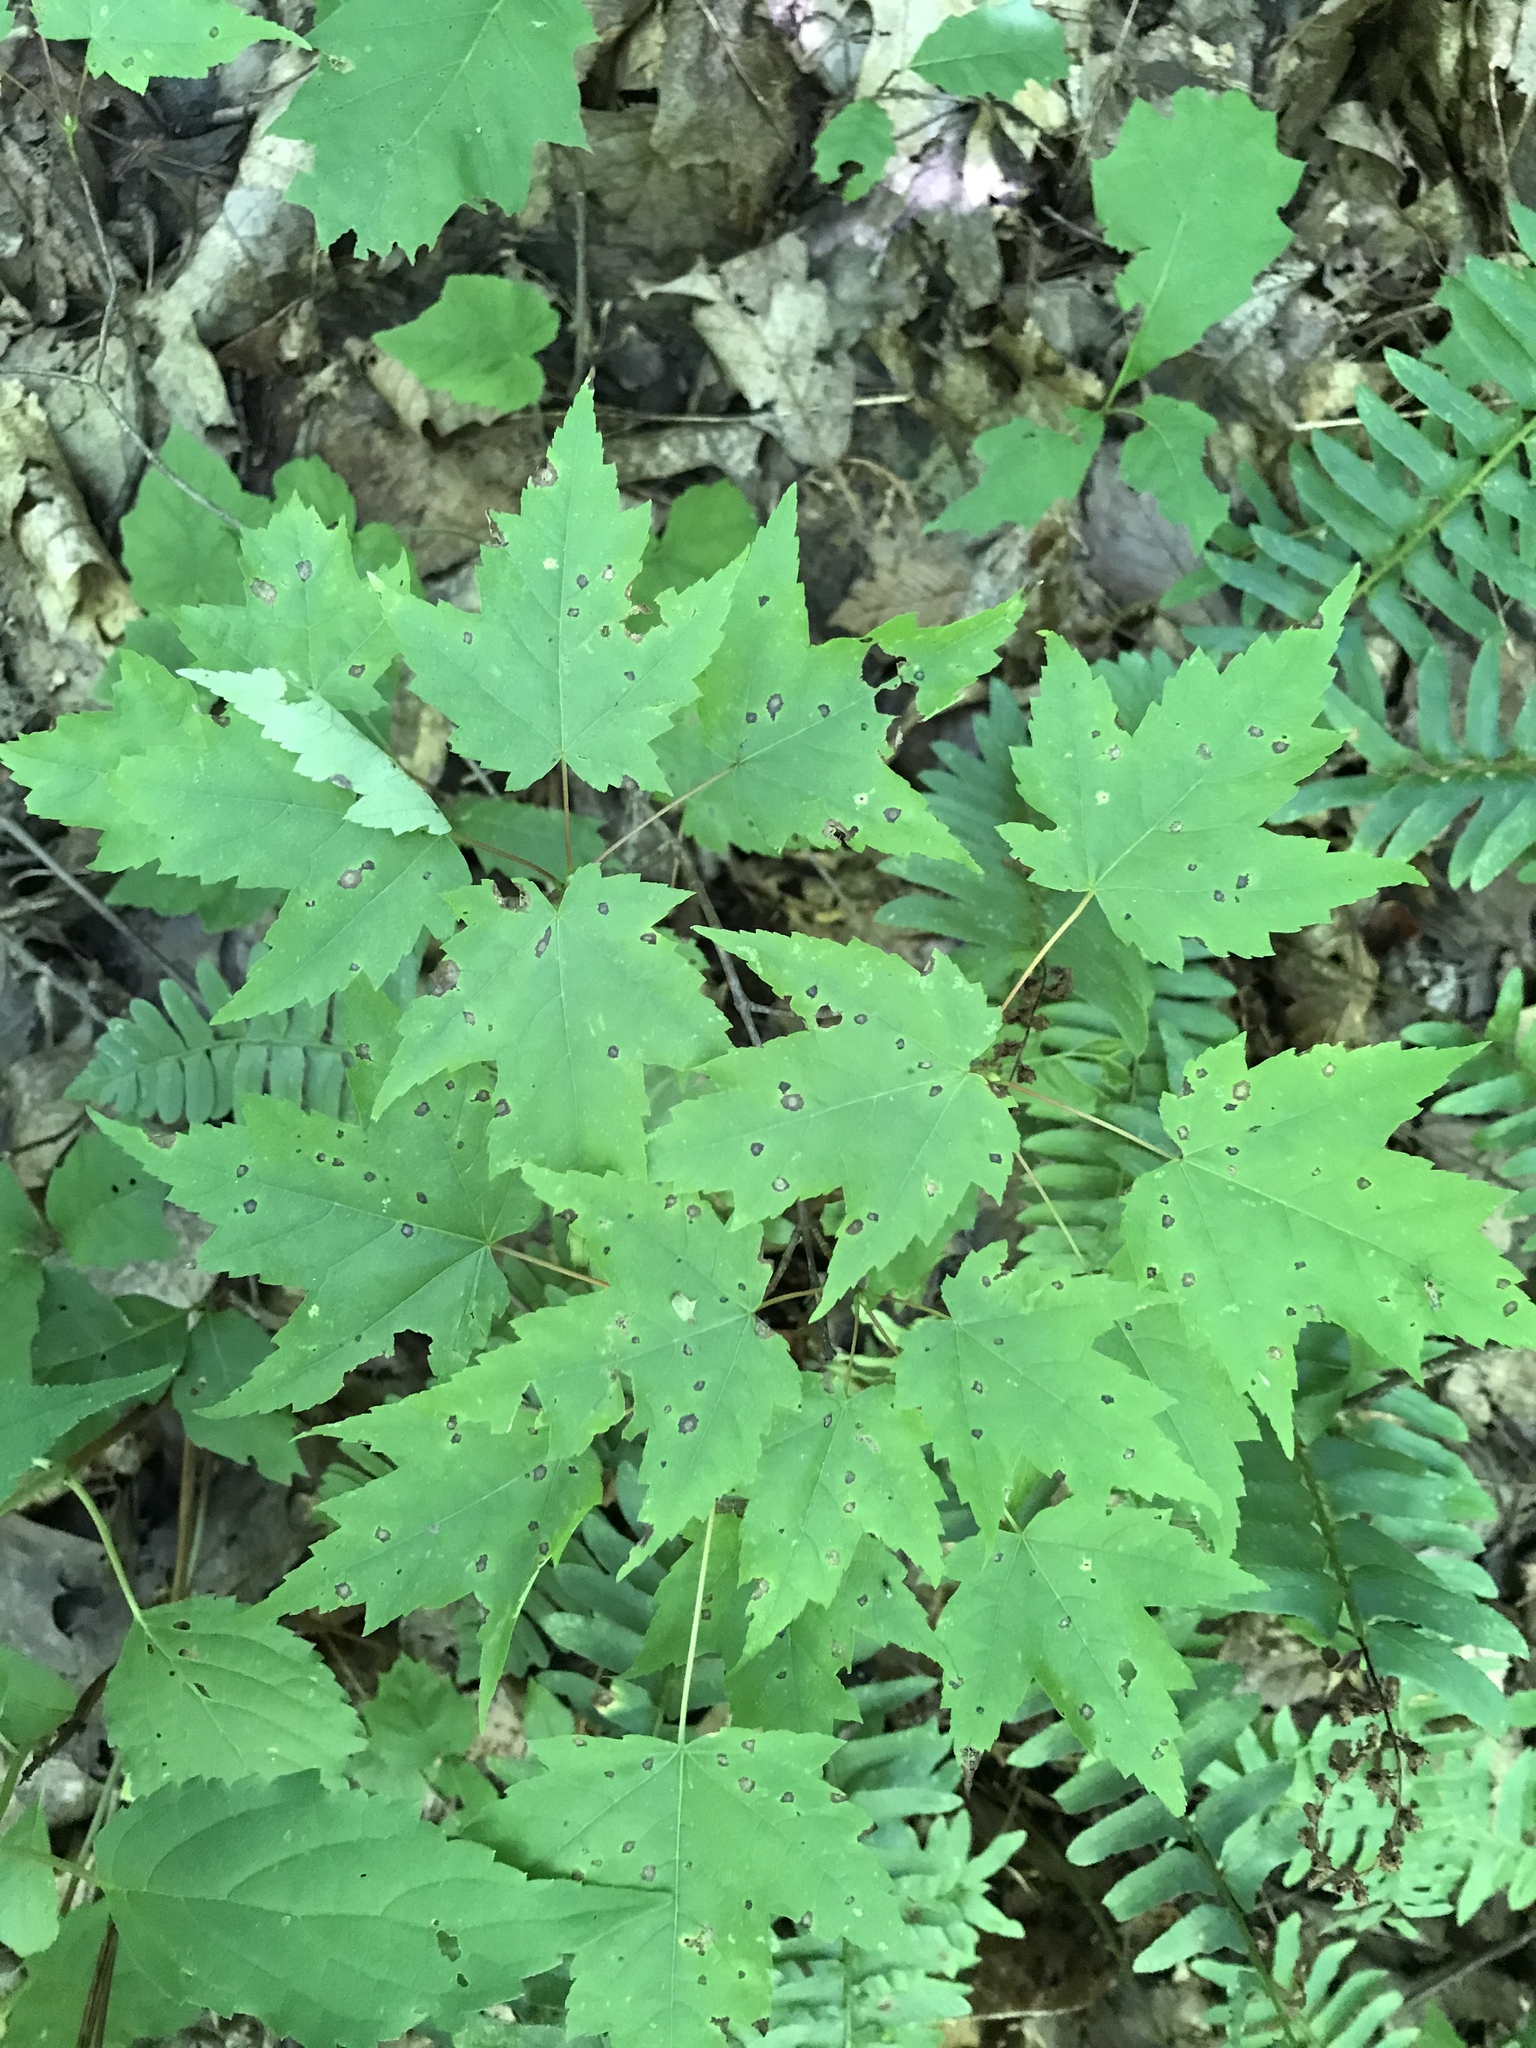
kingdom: Plantae
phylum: Tracheophyta
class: Magnoliopsida
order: Sapindales
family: Sapindaceae
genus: Acer
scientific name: Acer rubrum
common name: Red maple
